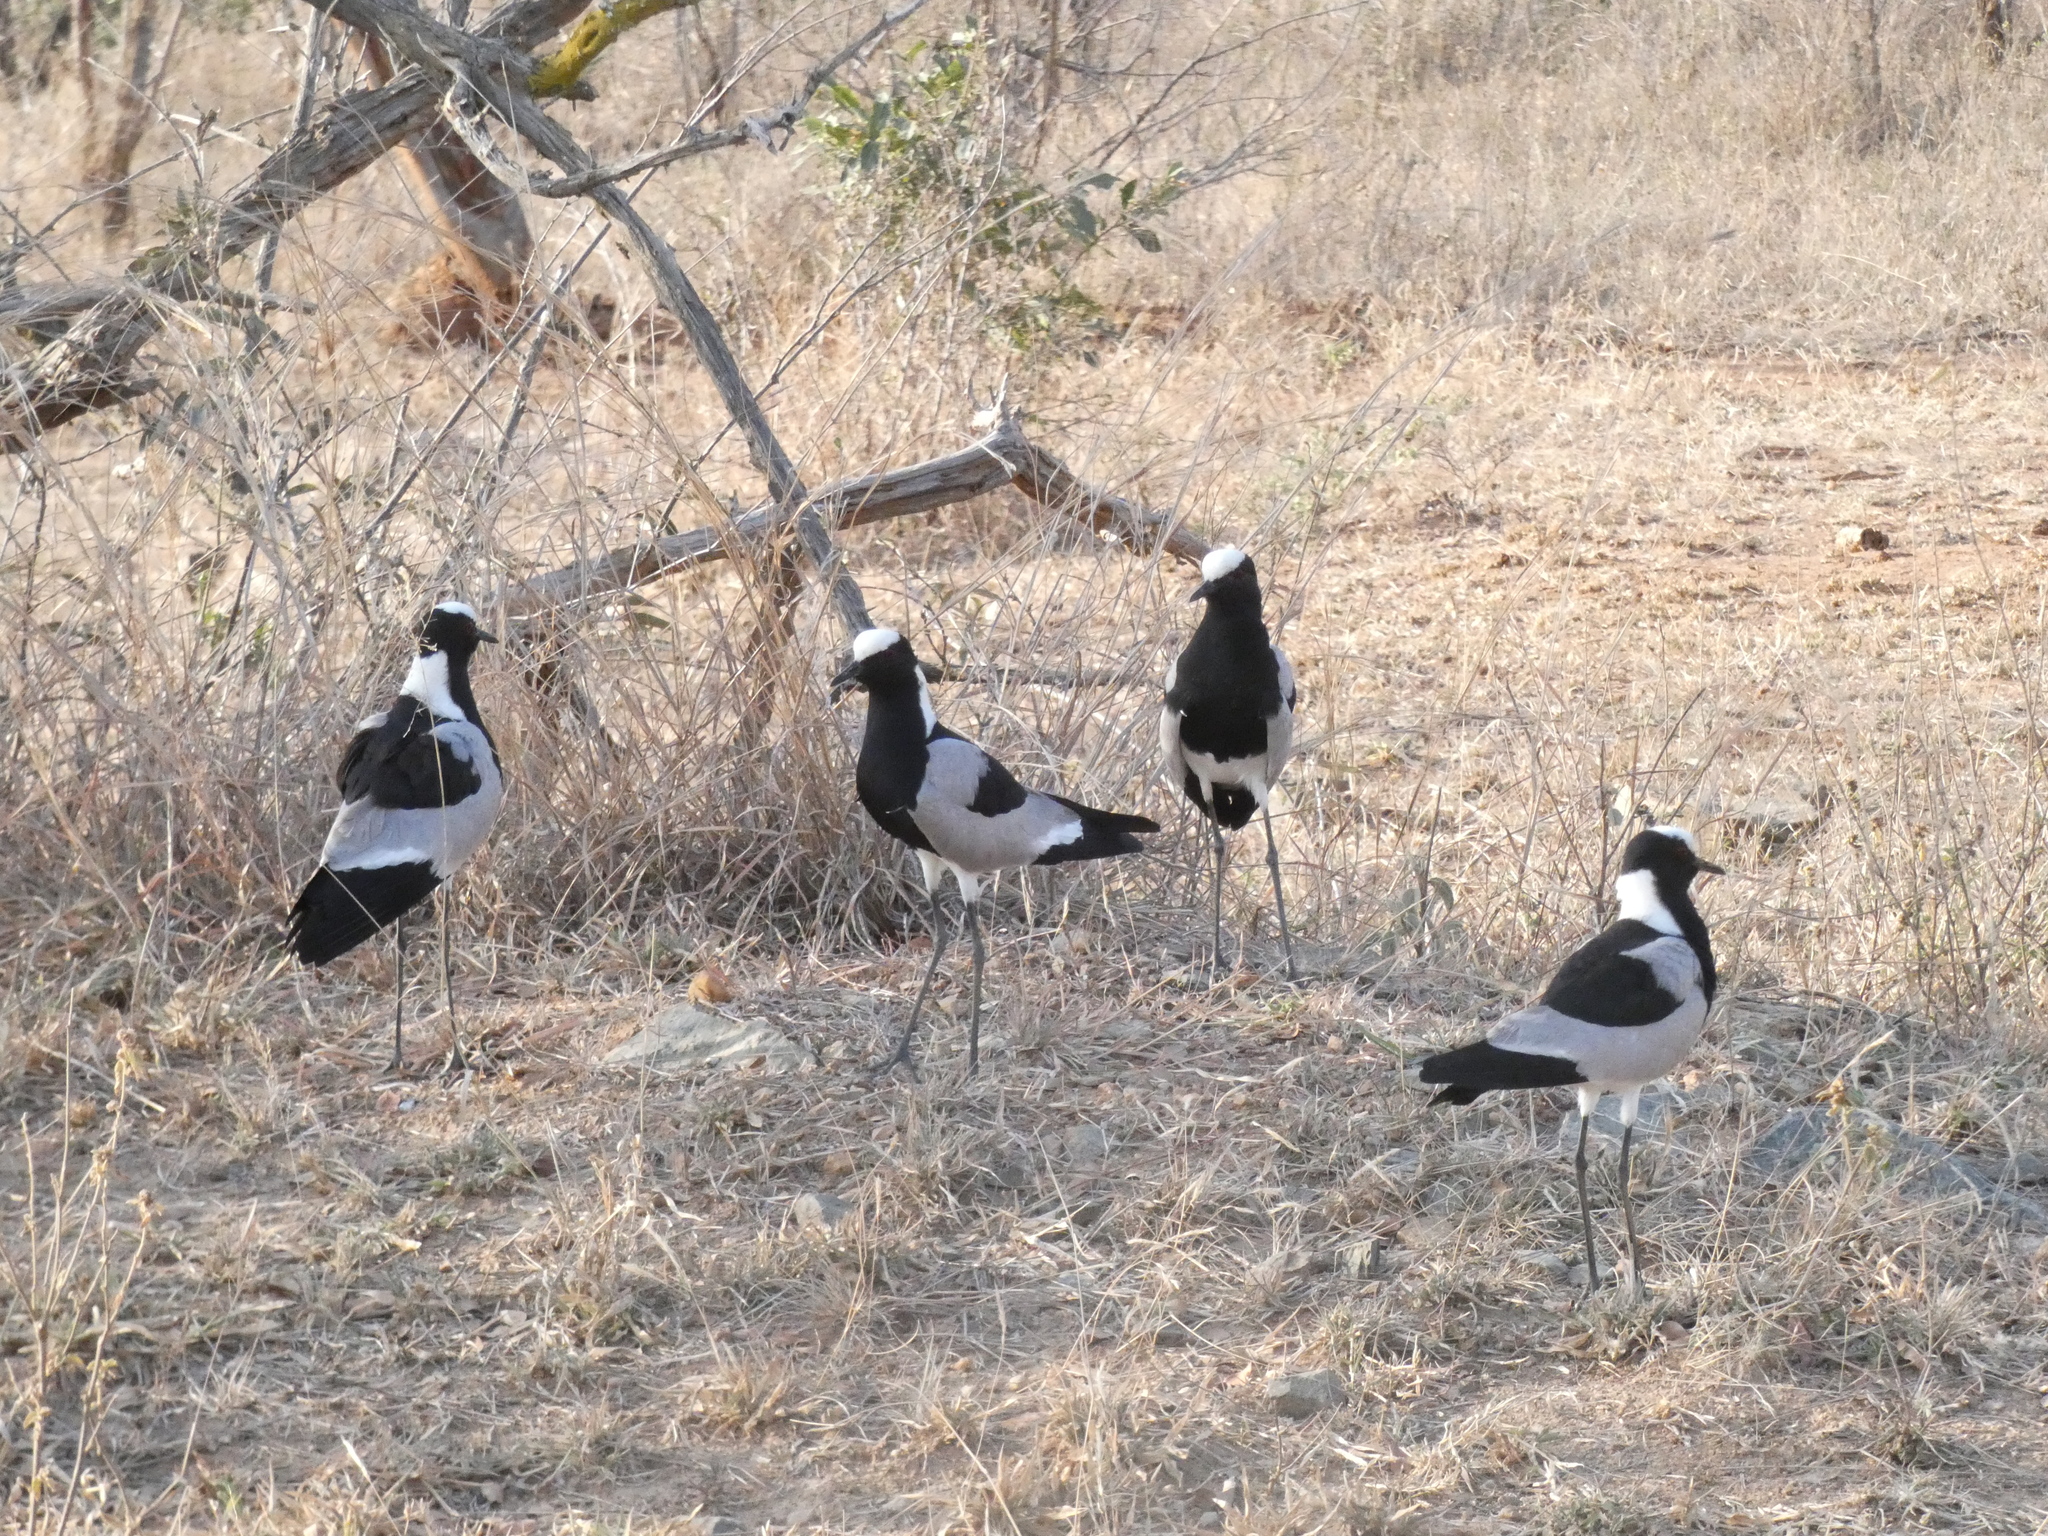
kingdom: Animalia
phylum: Chordata
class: Aves
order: Charadriiformes
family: Charadriidae
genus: Vanellus
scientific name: Vanellus armatus
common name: Blacksmith lapwing
